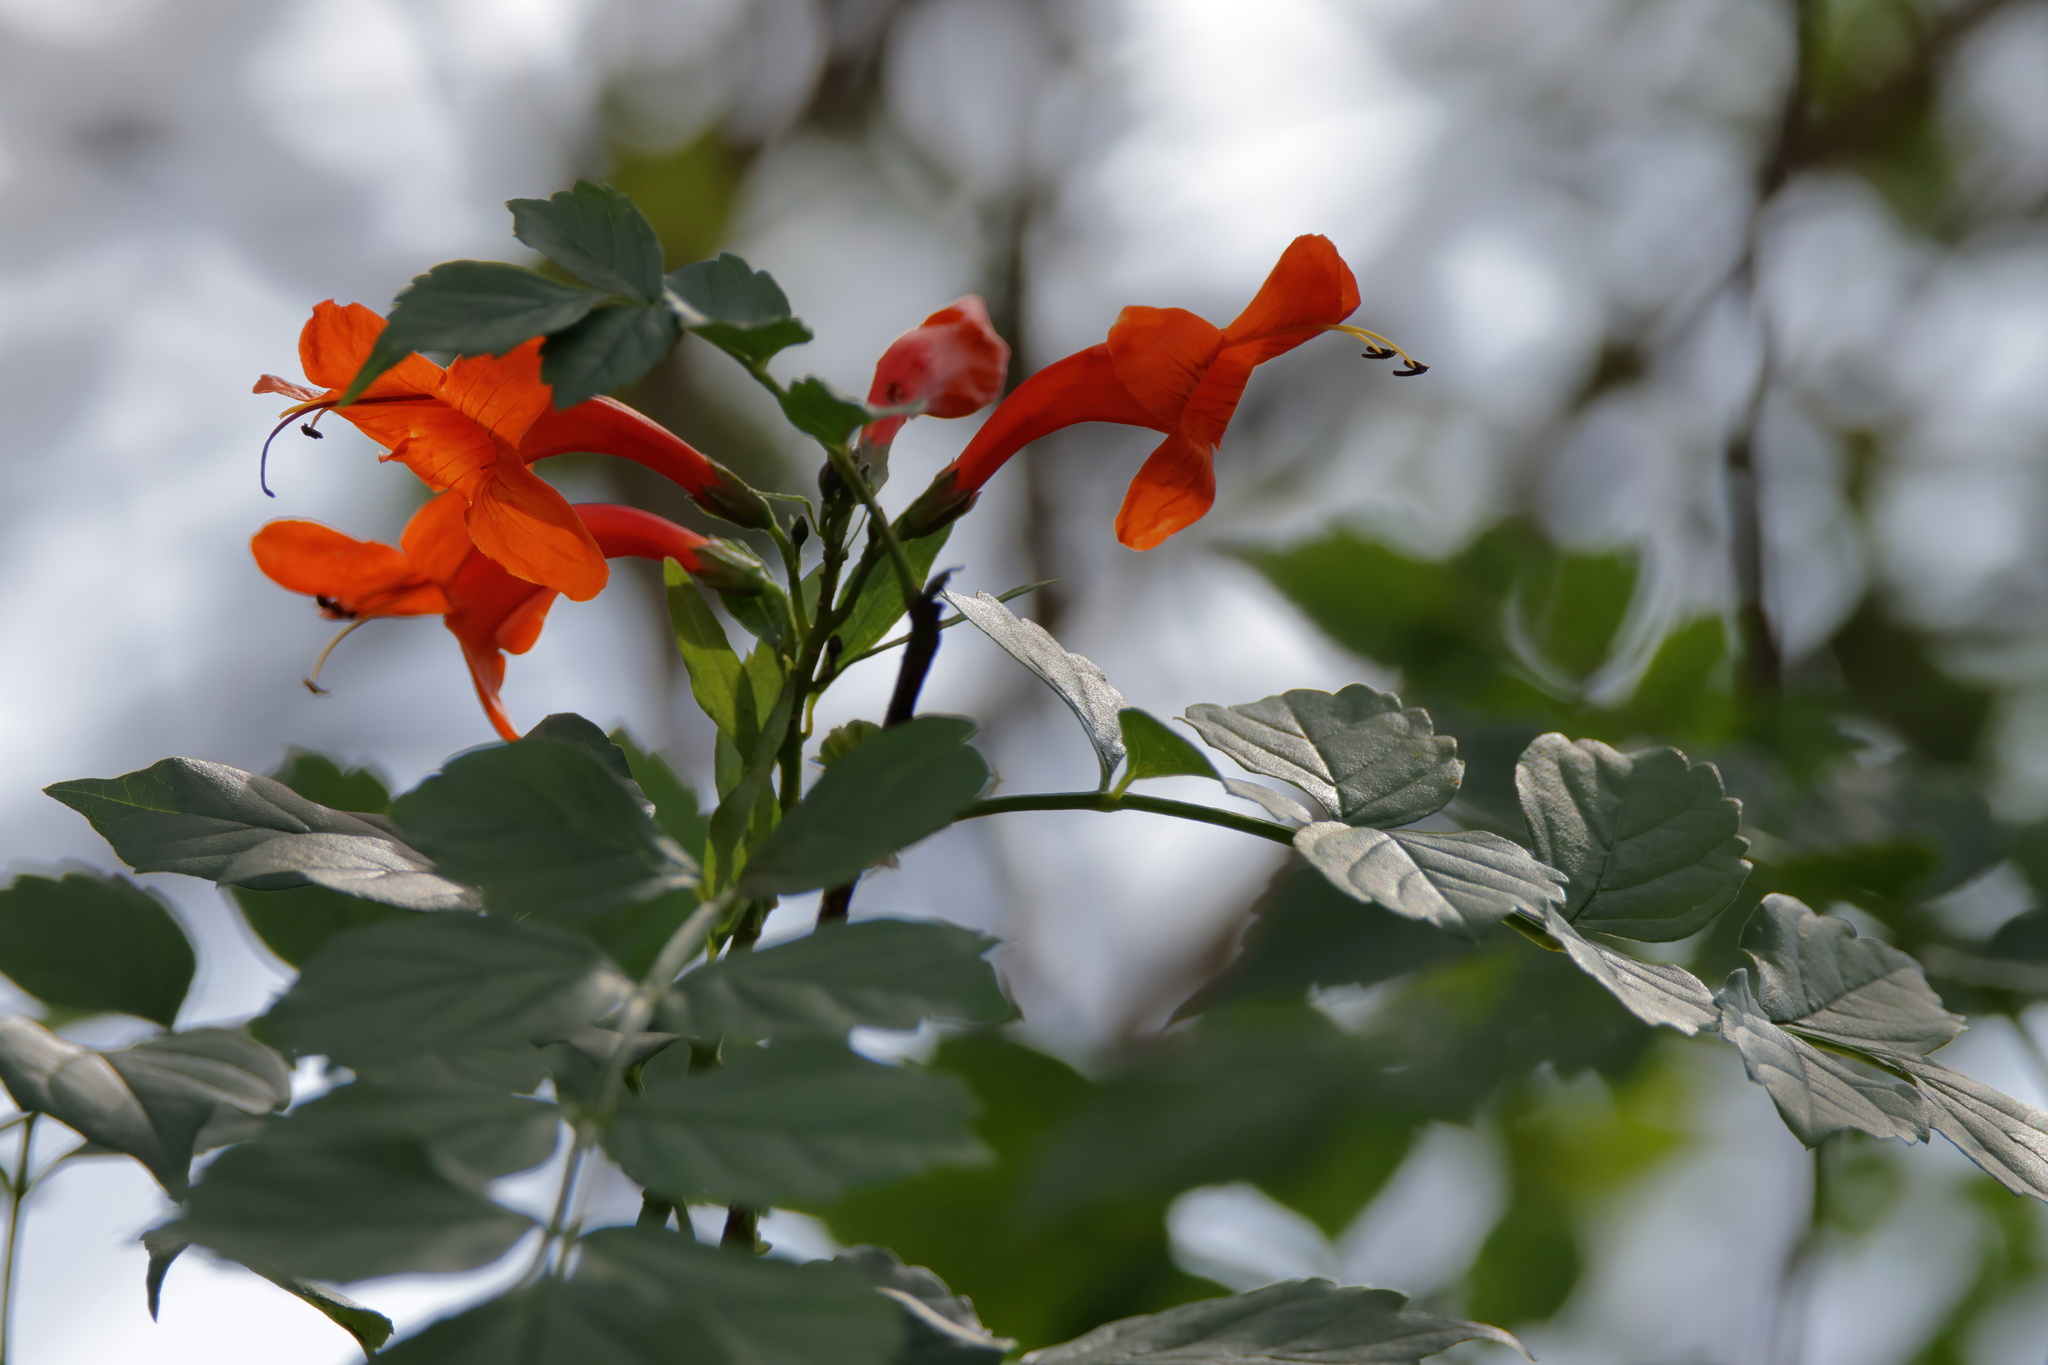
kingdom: Plantae
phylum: Tracheophyta
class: Magnoliopsida
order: Lamiales
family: Bignoniaceae
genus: Tecomaria
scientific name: Tecomaria capensis
